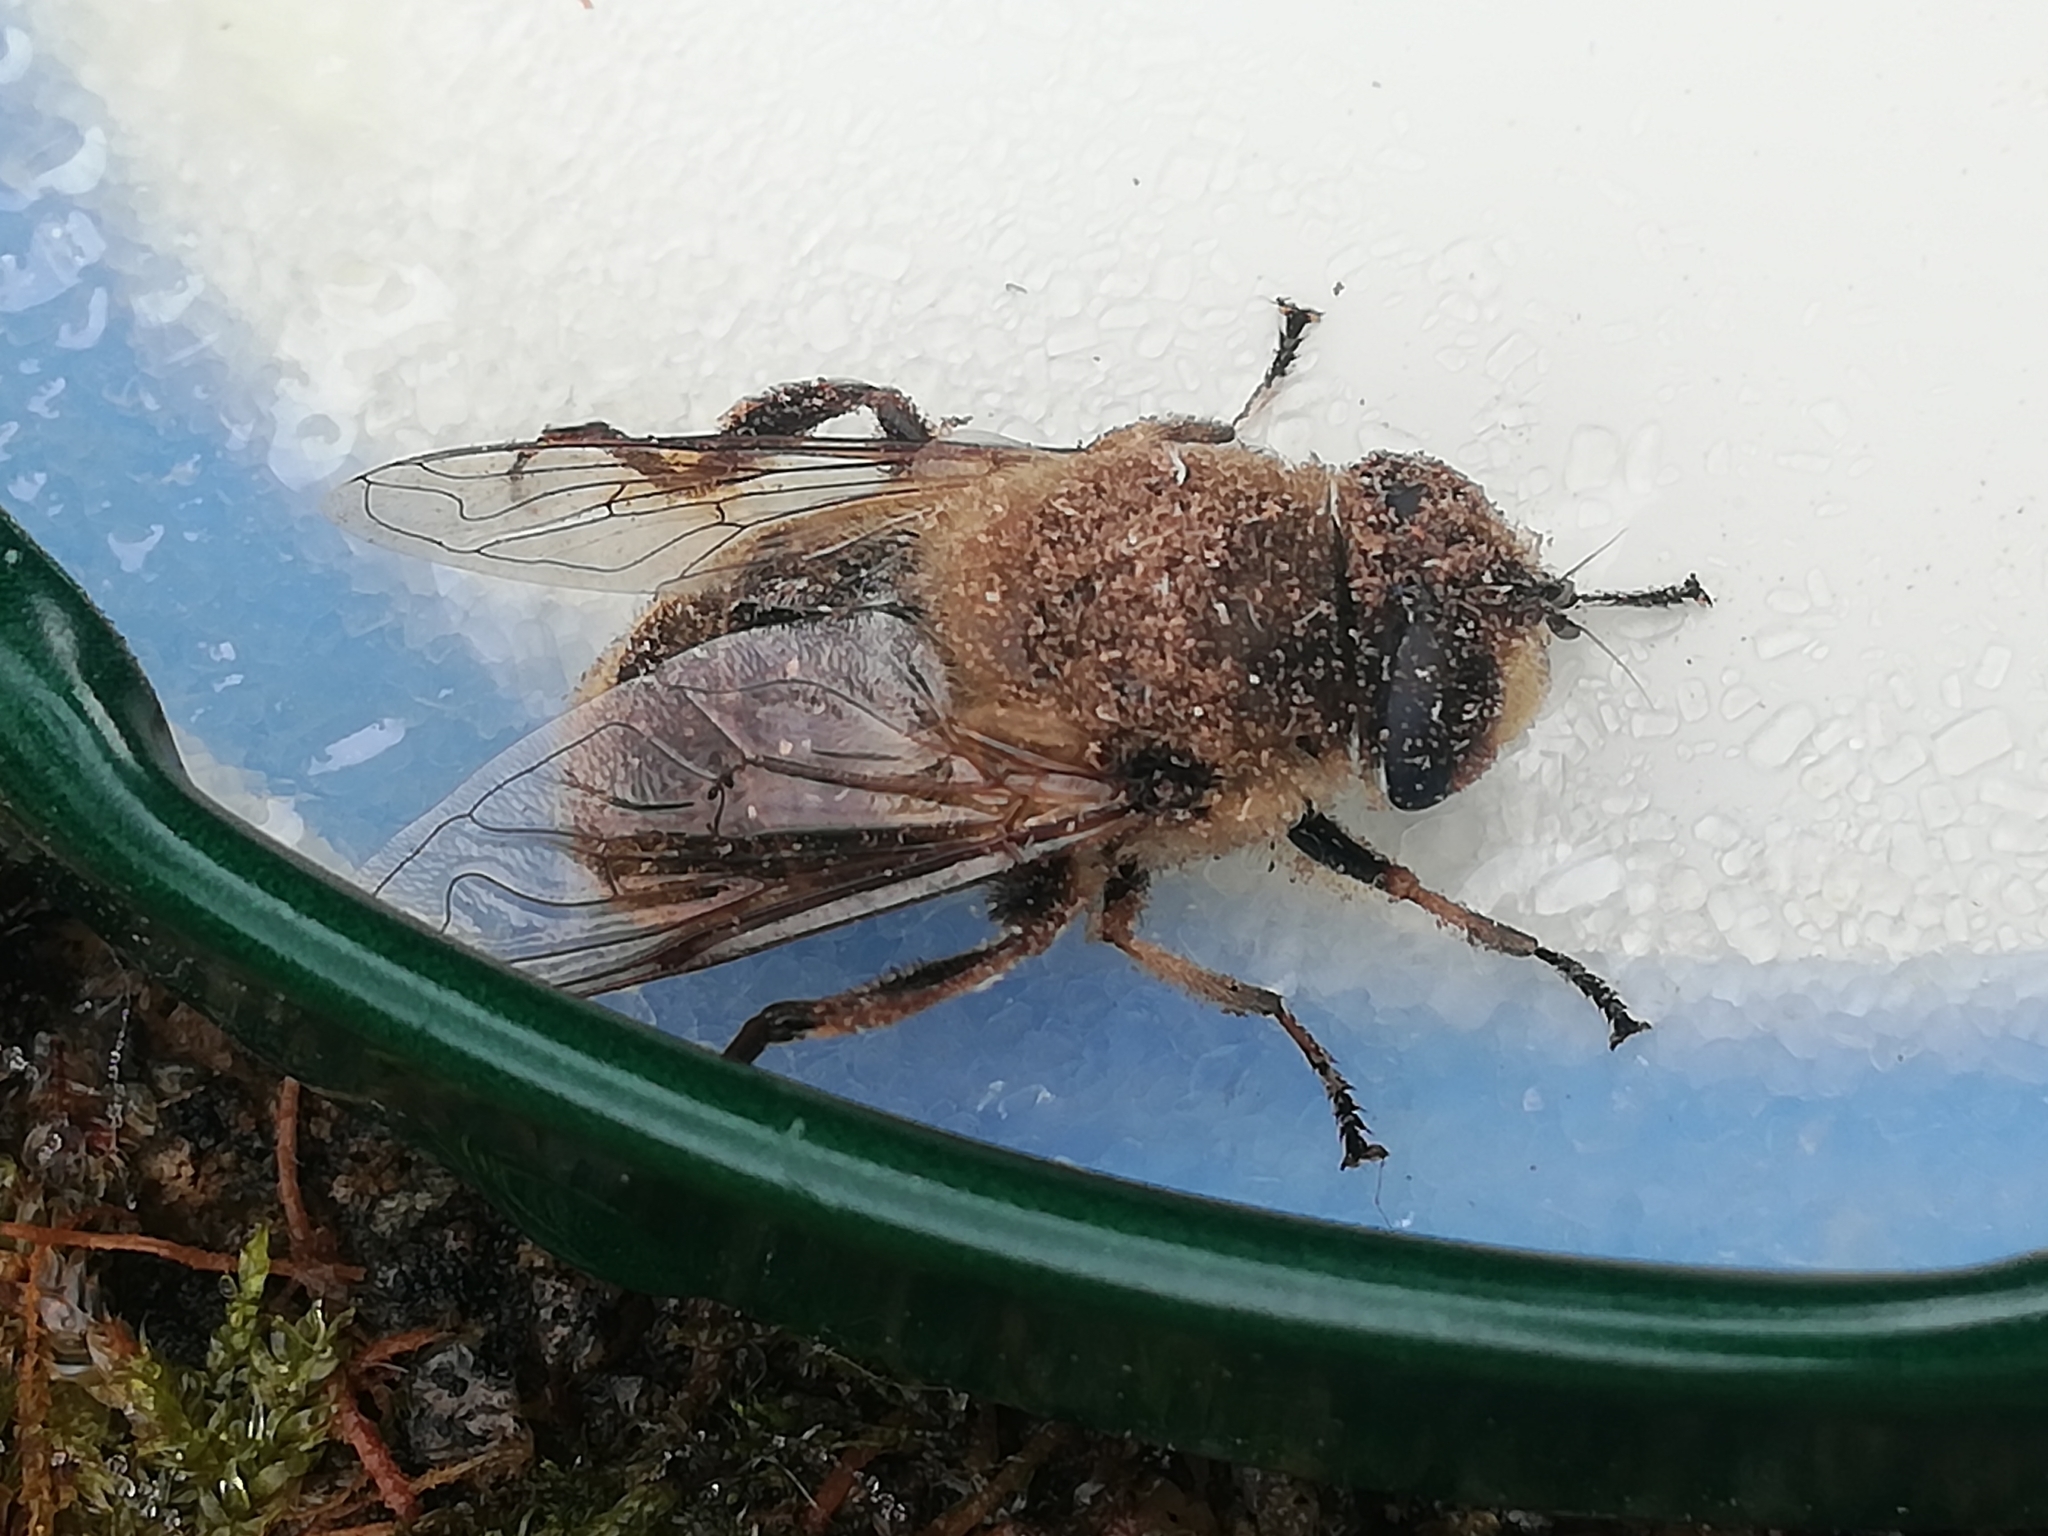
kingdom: Animalia
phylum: Arthropoda
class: Insecta
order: Diptera
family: Syrphidae
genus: Eristalis
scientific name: Eristalis tenax
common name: Drone fly
